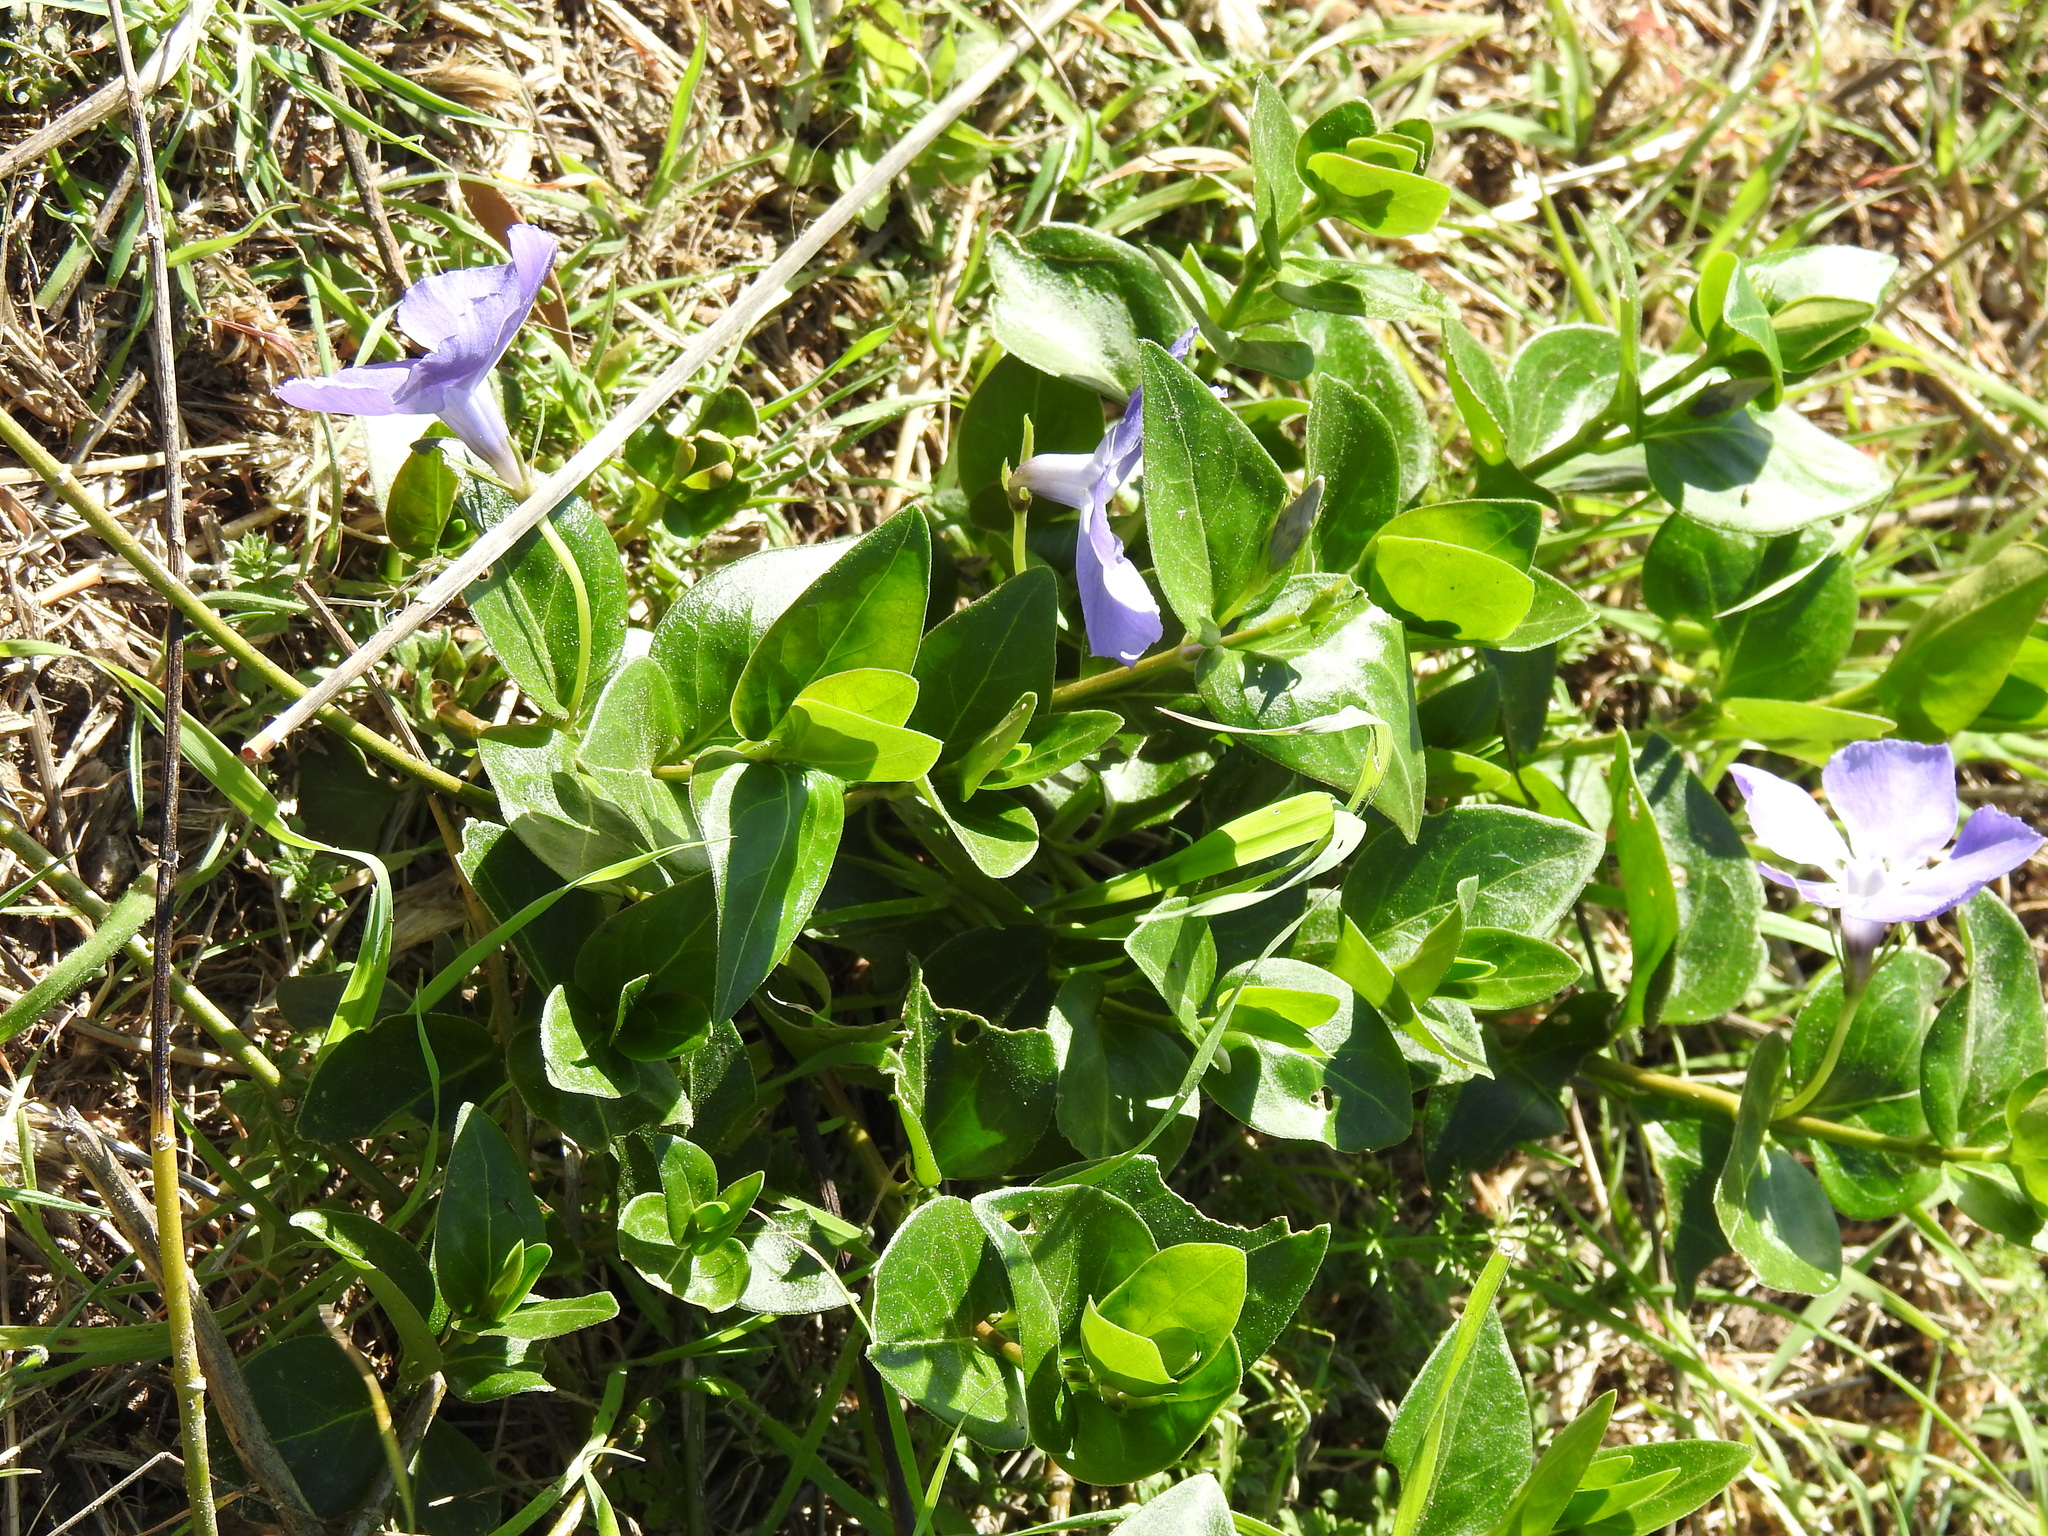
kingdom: Plantae
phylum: Tracheophyta
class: Magnoliopsida
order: Gentianales
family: Apocynaceae
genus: Vinca
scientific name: Vinca major
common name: Greater periwinkle
